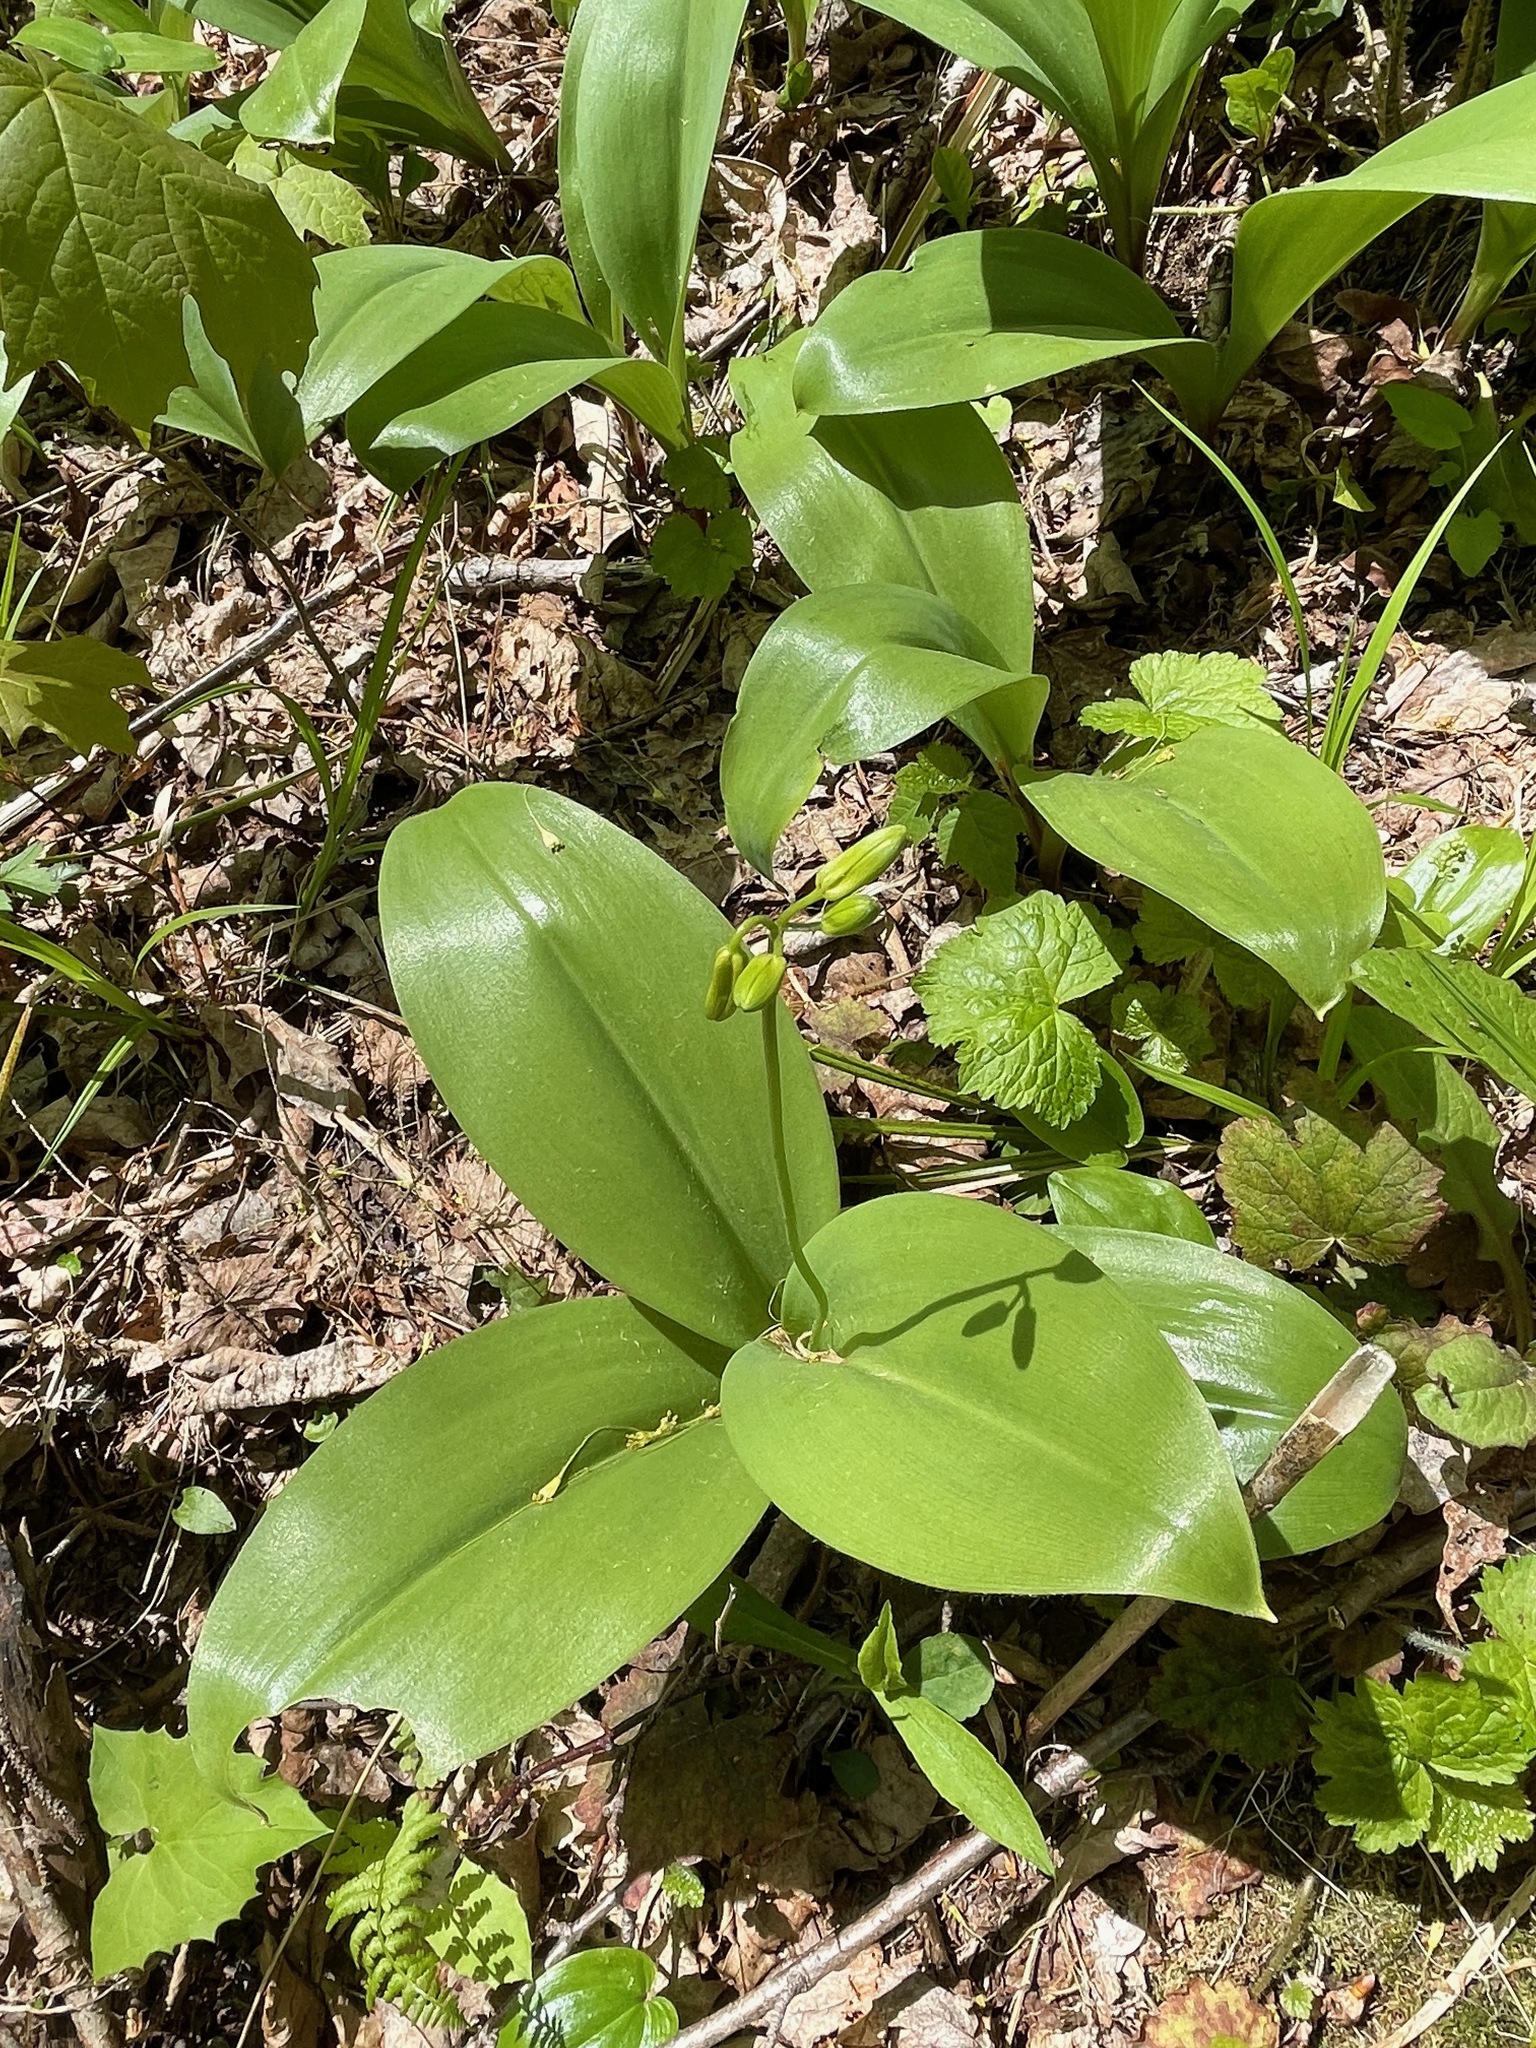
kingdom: Plantae
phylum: Tracheophyta
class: Liliopsida
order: Liliales
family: Liliaceae
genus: Clintonia
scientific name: Clintonia borealis
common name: Yellow clintonia
